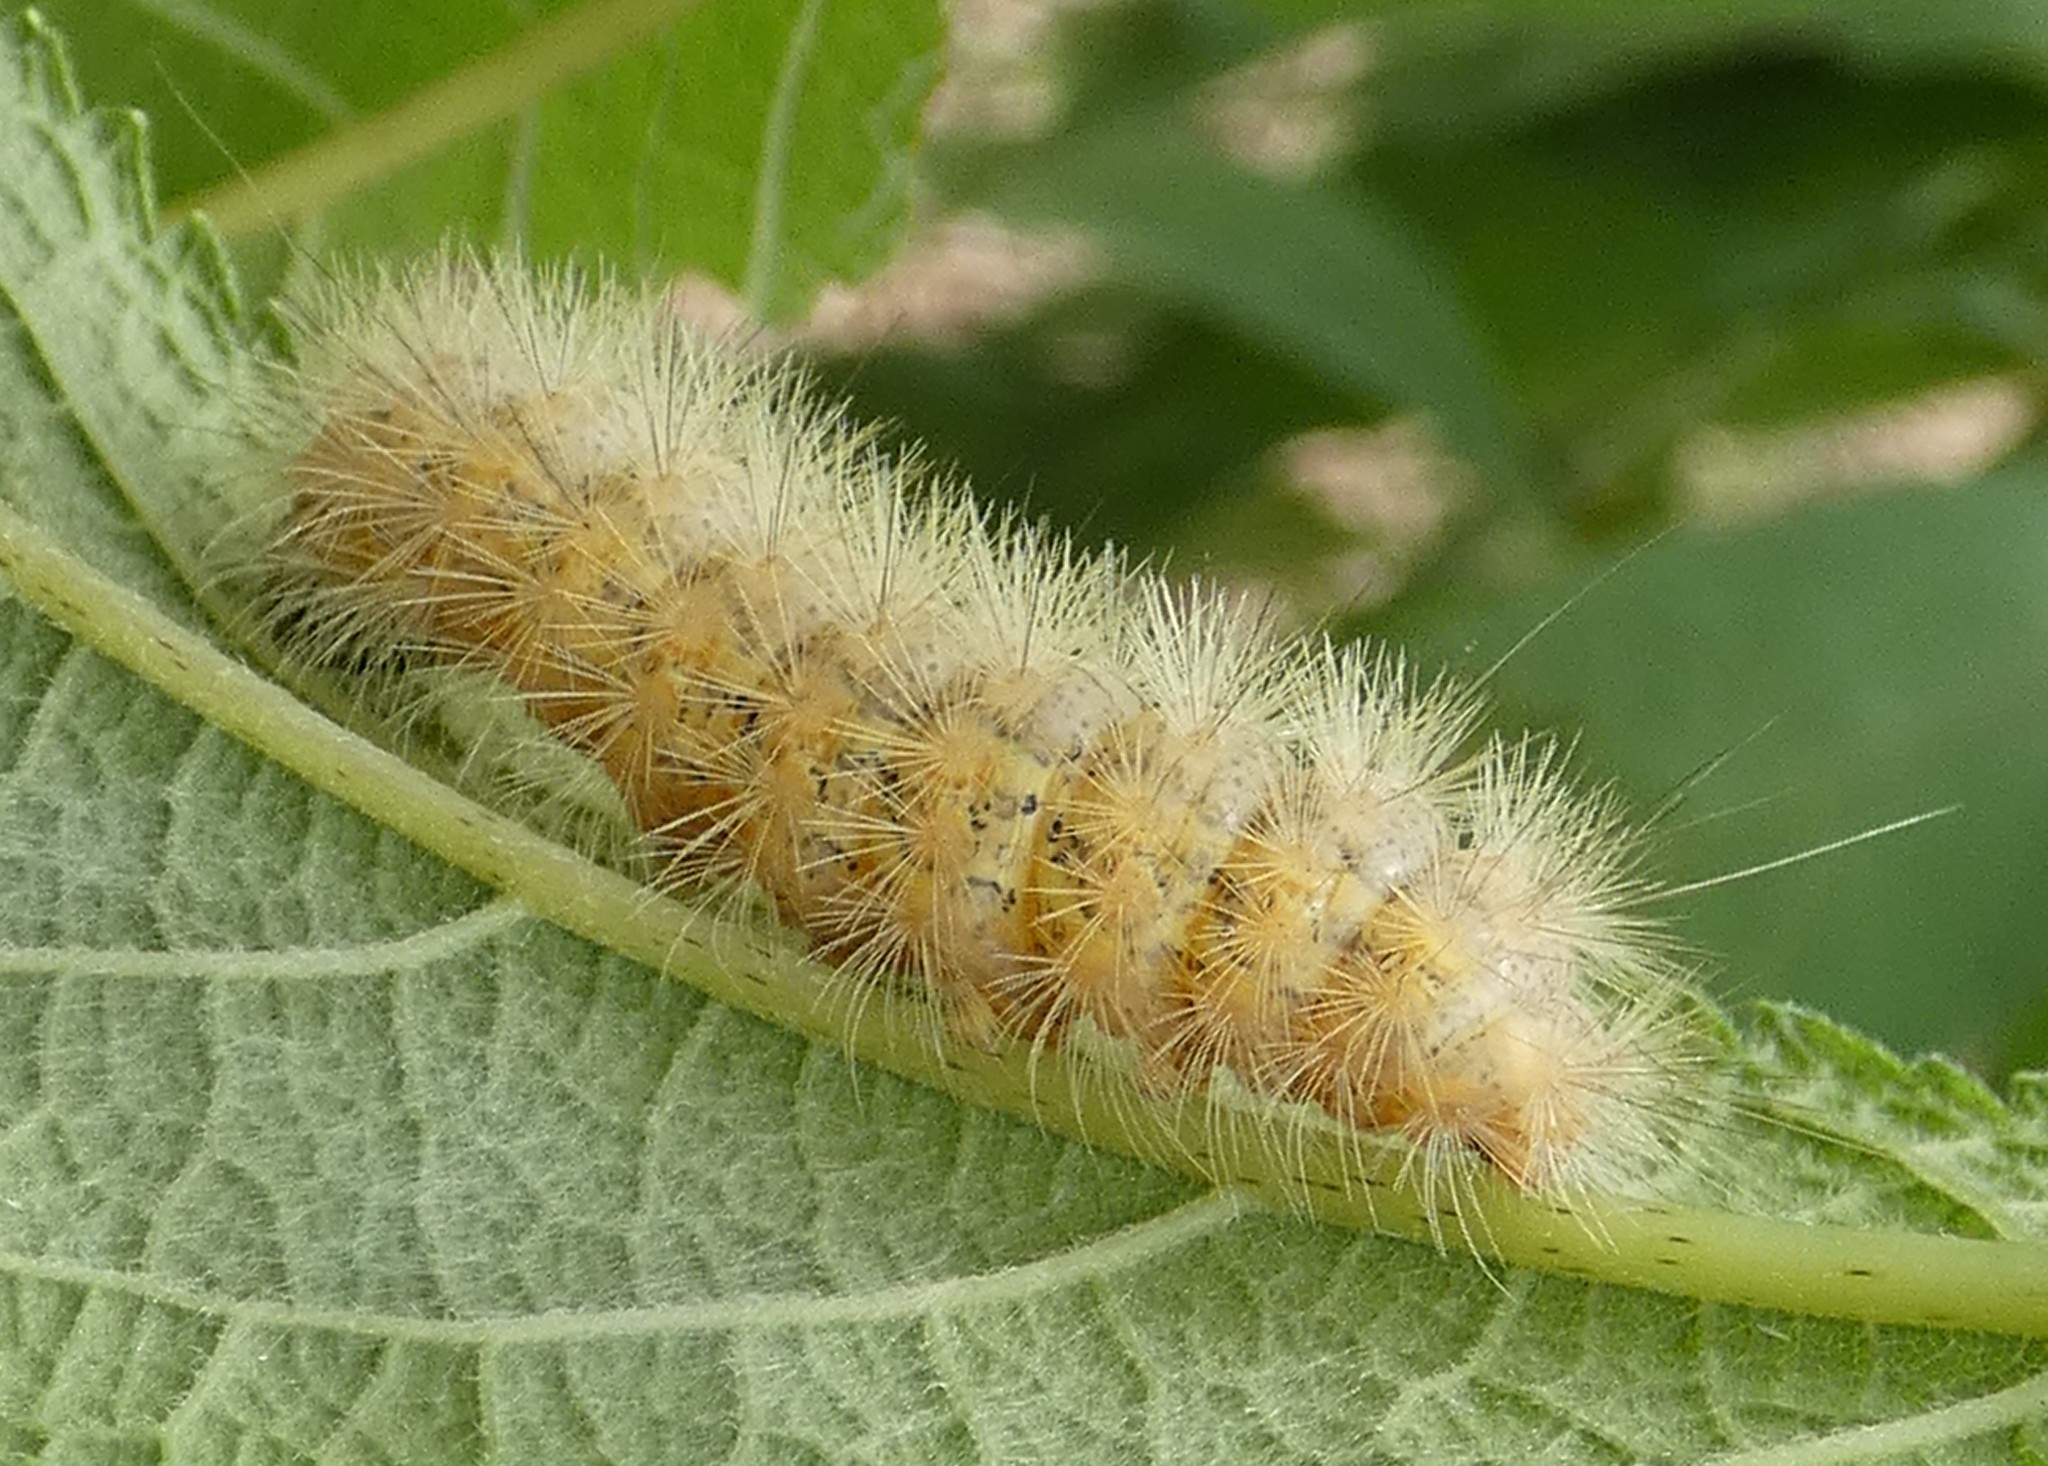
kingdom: Animalia
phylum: Arthropoda
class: Insecta
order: Lepidoptera
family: Erebidae
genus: Estigmene
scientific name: Estigmene acrea
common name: Salt marsh moth
